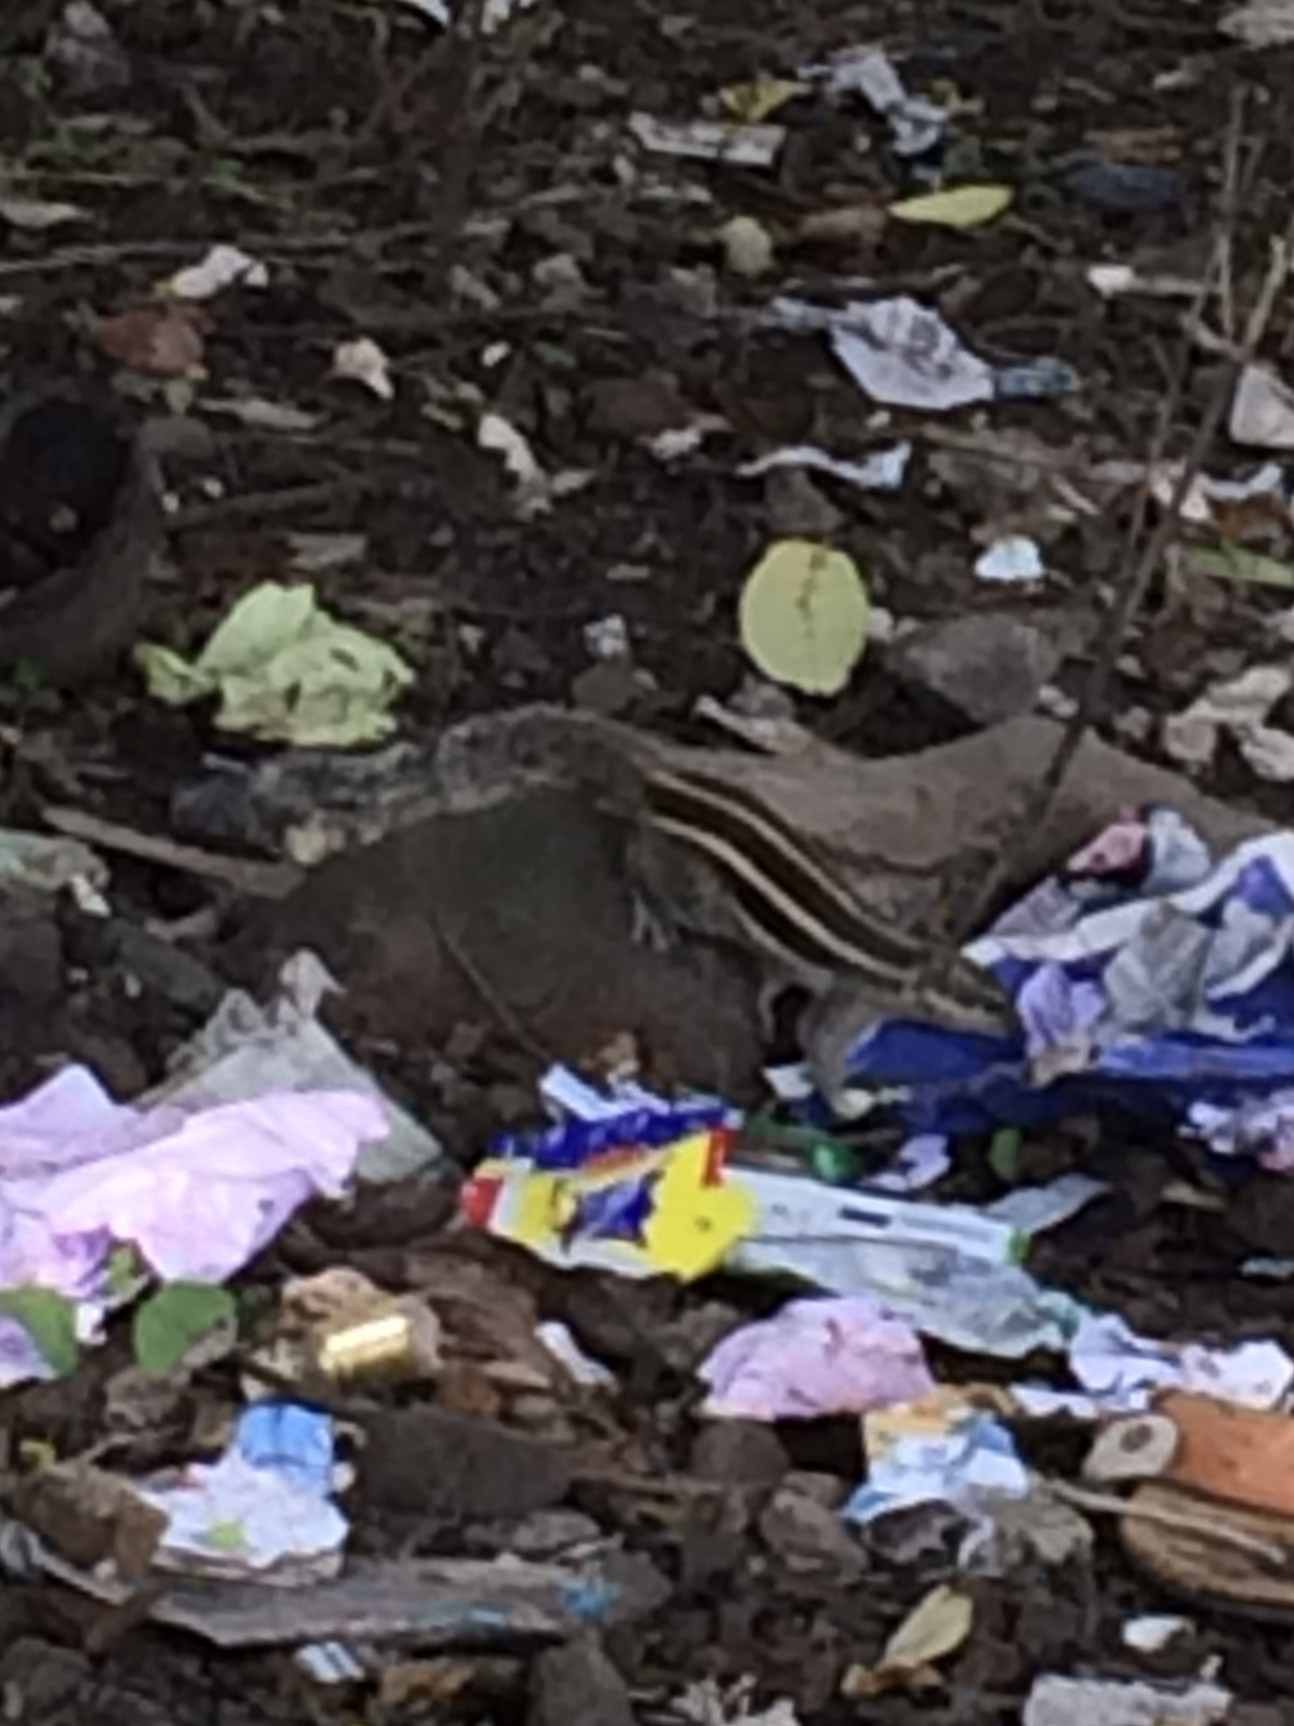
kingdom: Animalia
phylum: Chordata
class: Mammalia
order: Rodentia
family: Sciuridae
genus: Funambulus
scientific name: Funambulus pennantii
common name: Northern palm squirrel
